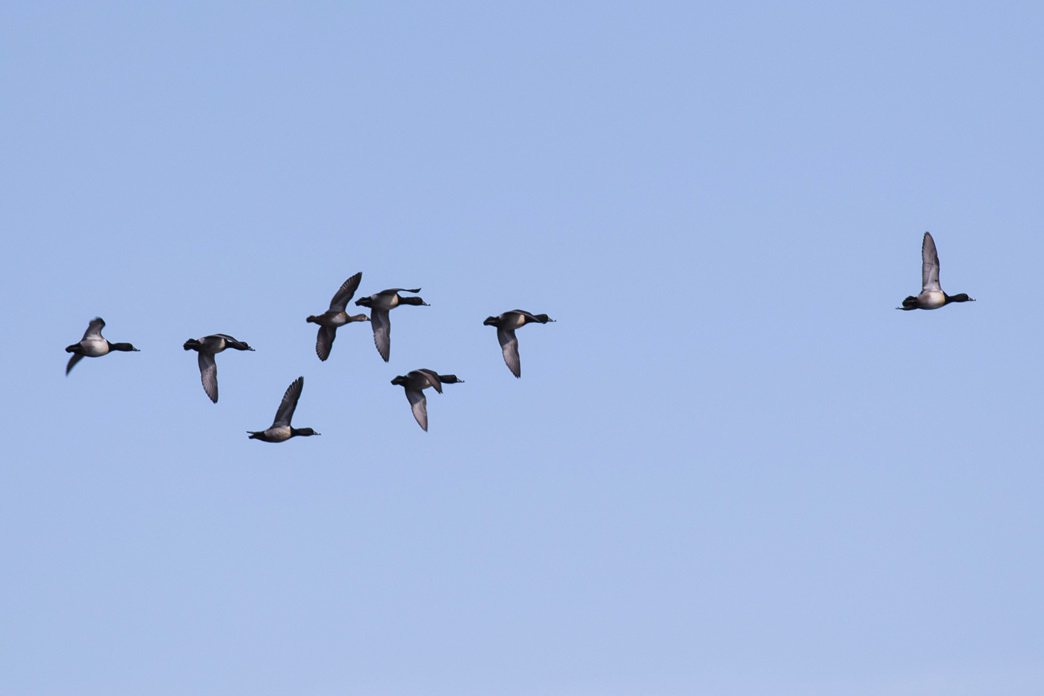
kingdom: Animalia
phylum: Chordata
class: Aves
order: Anseriformes
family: Anatidae
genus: Aythya
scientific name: Aythya collaris
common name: Ring-necked duck
